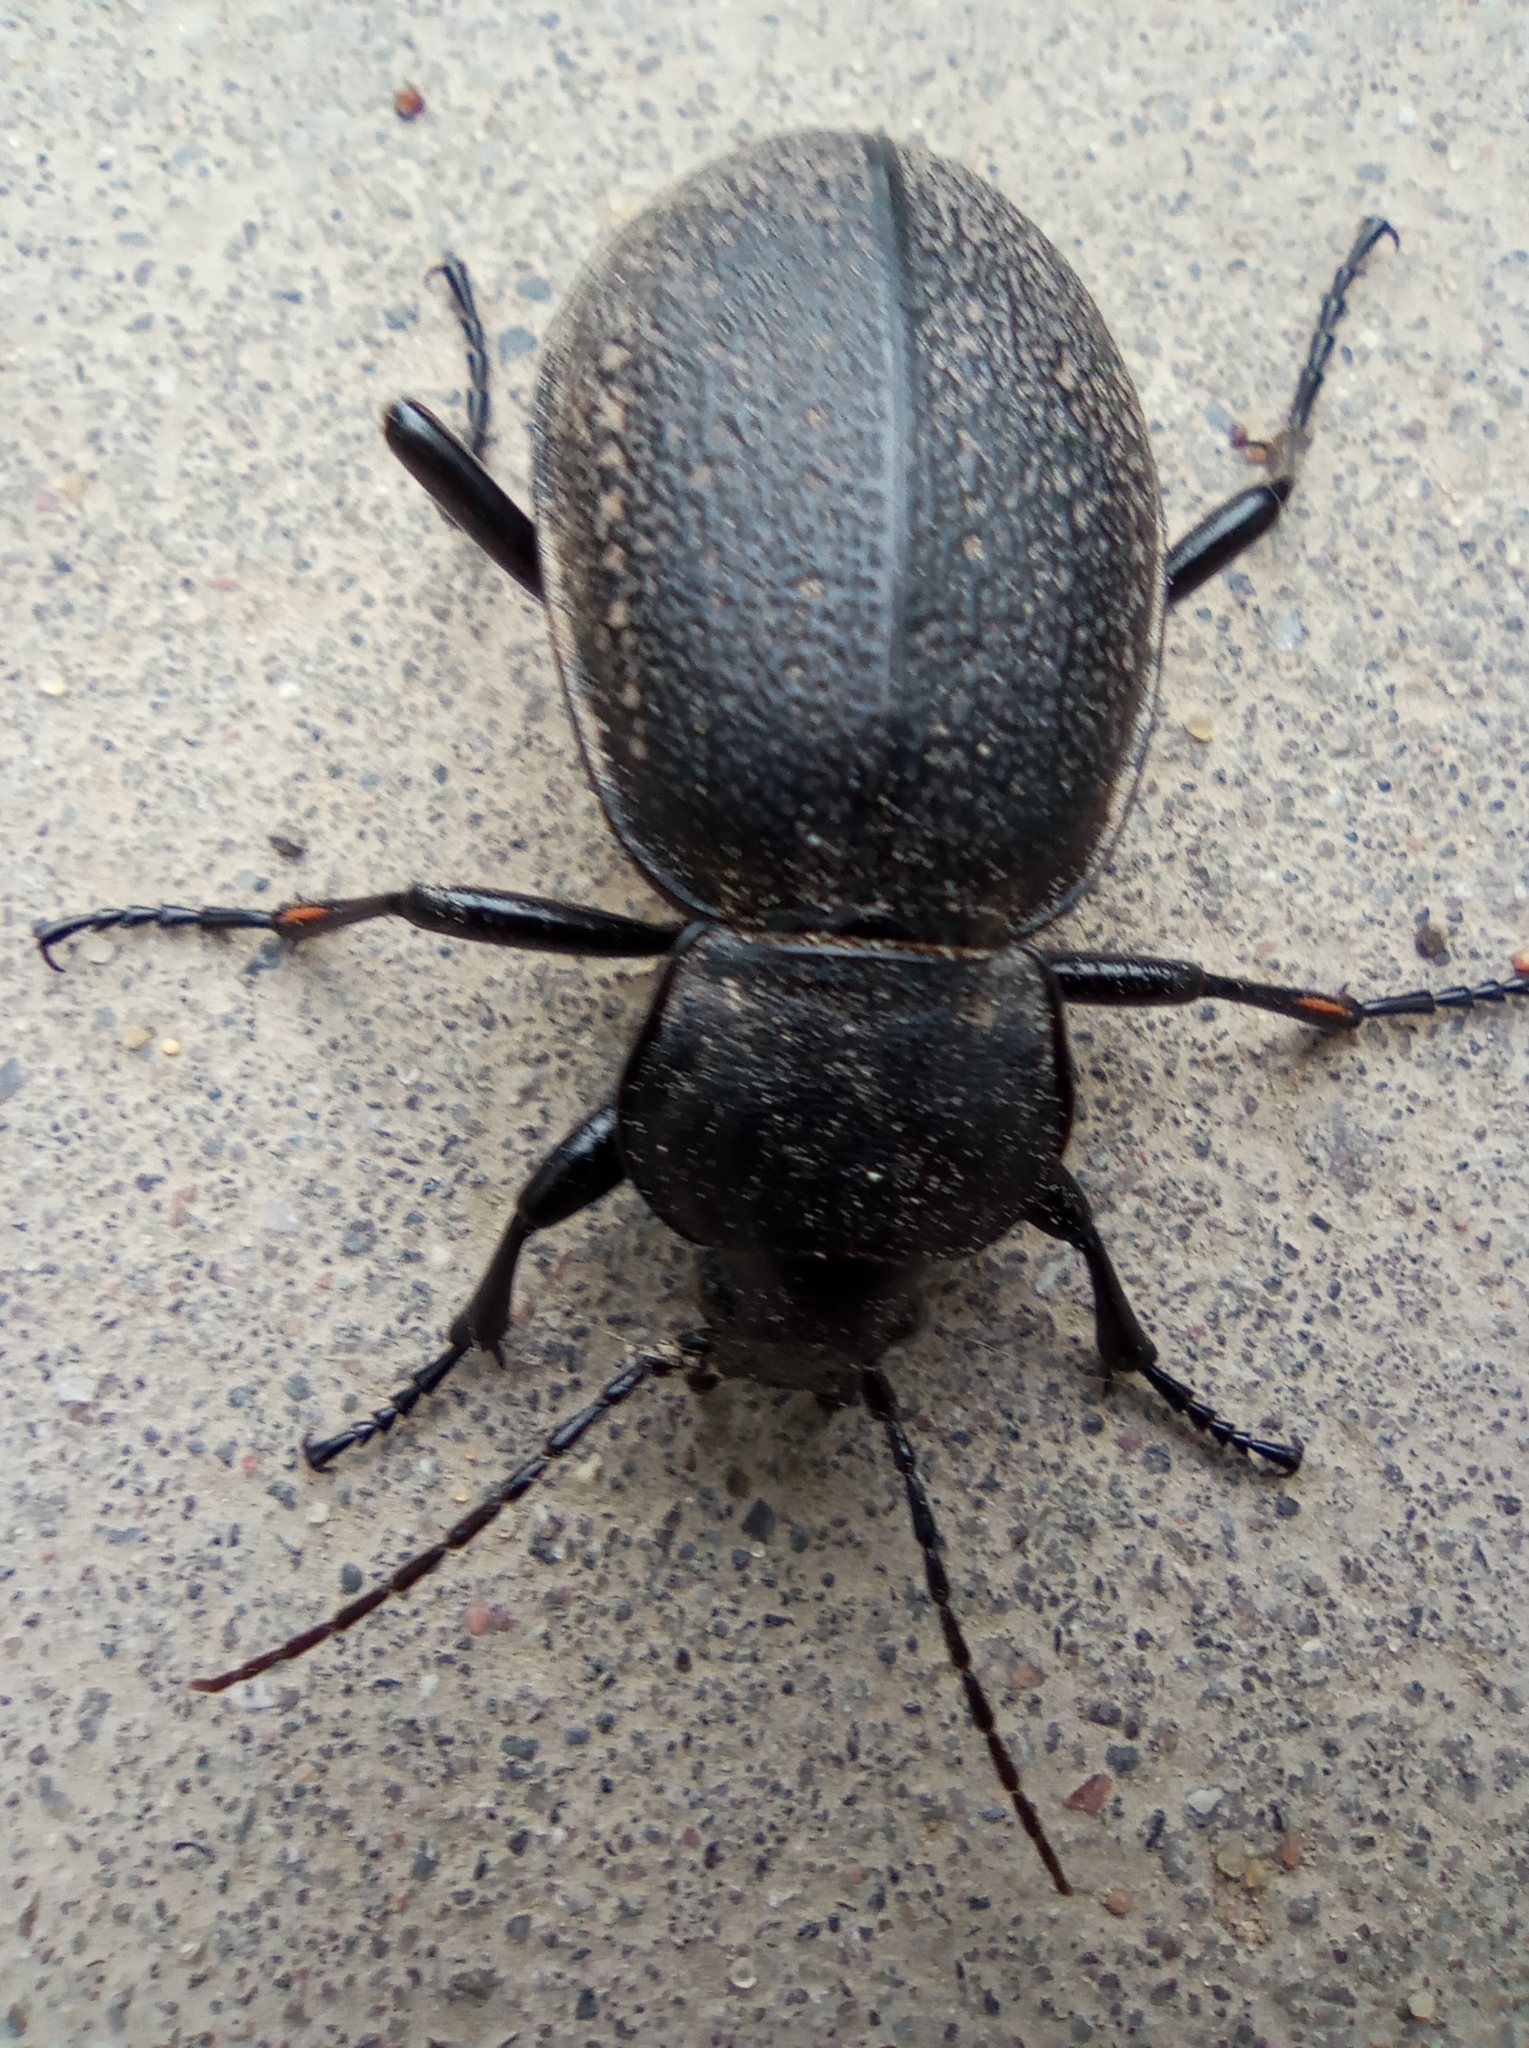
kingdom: Animalia
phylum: Arthropoda
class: Insecta
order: Coleoptera
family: Carabidae
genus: Carabus
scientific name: Carabus coriaceus
